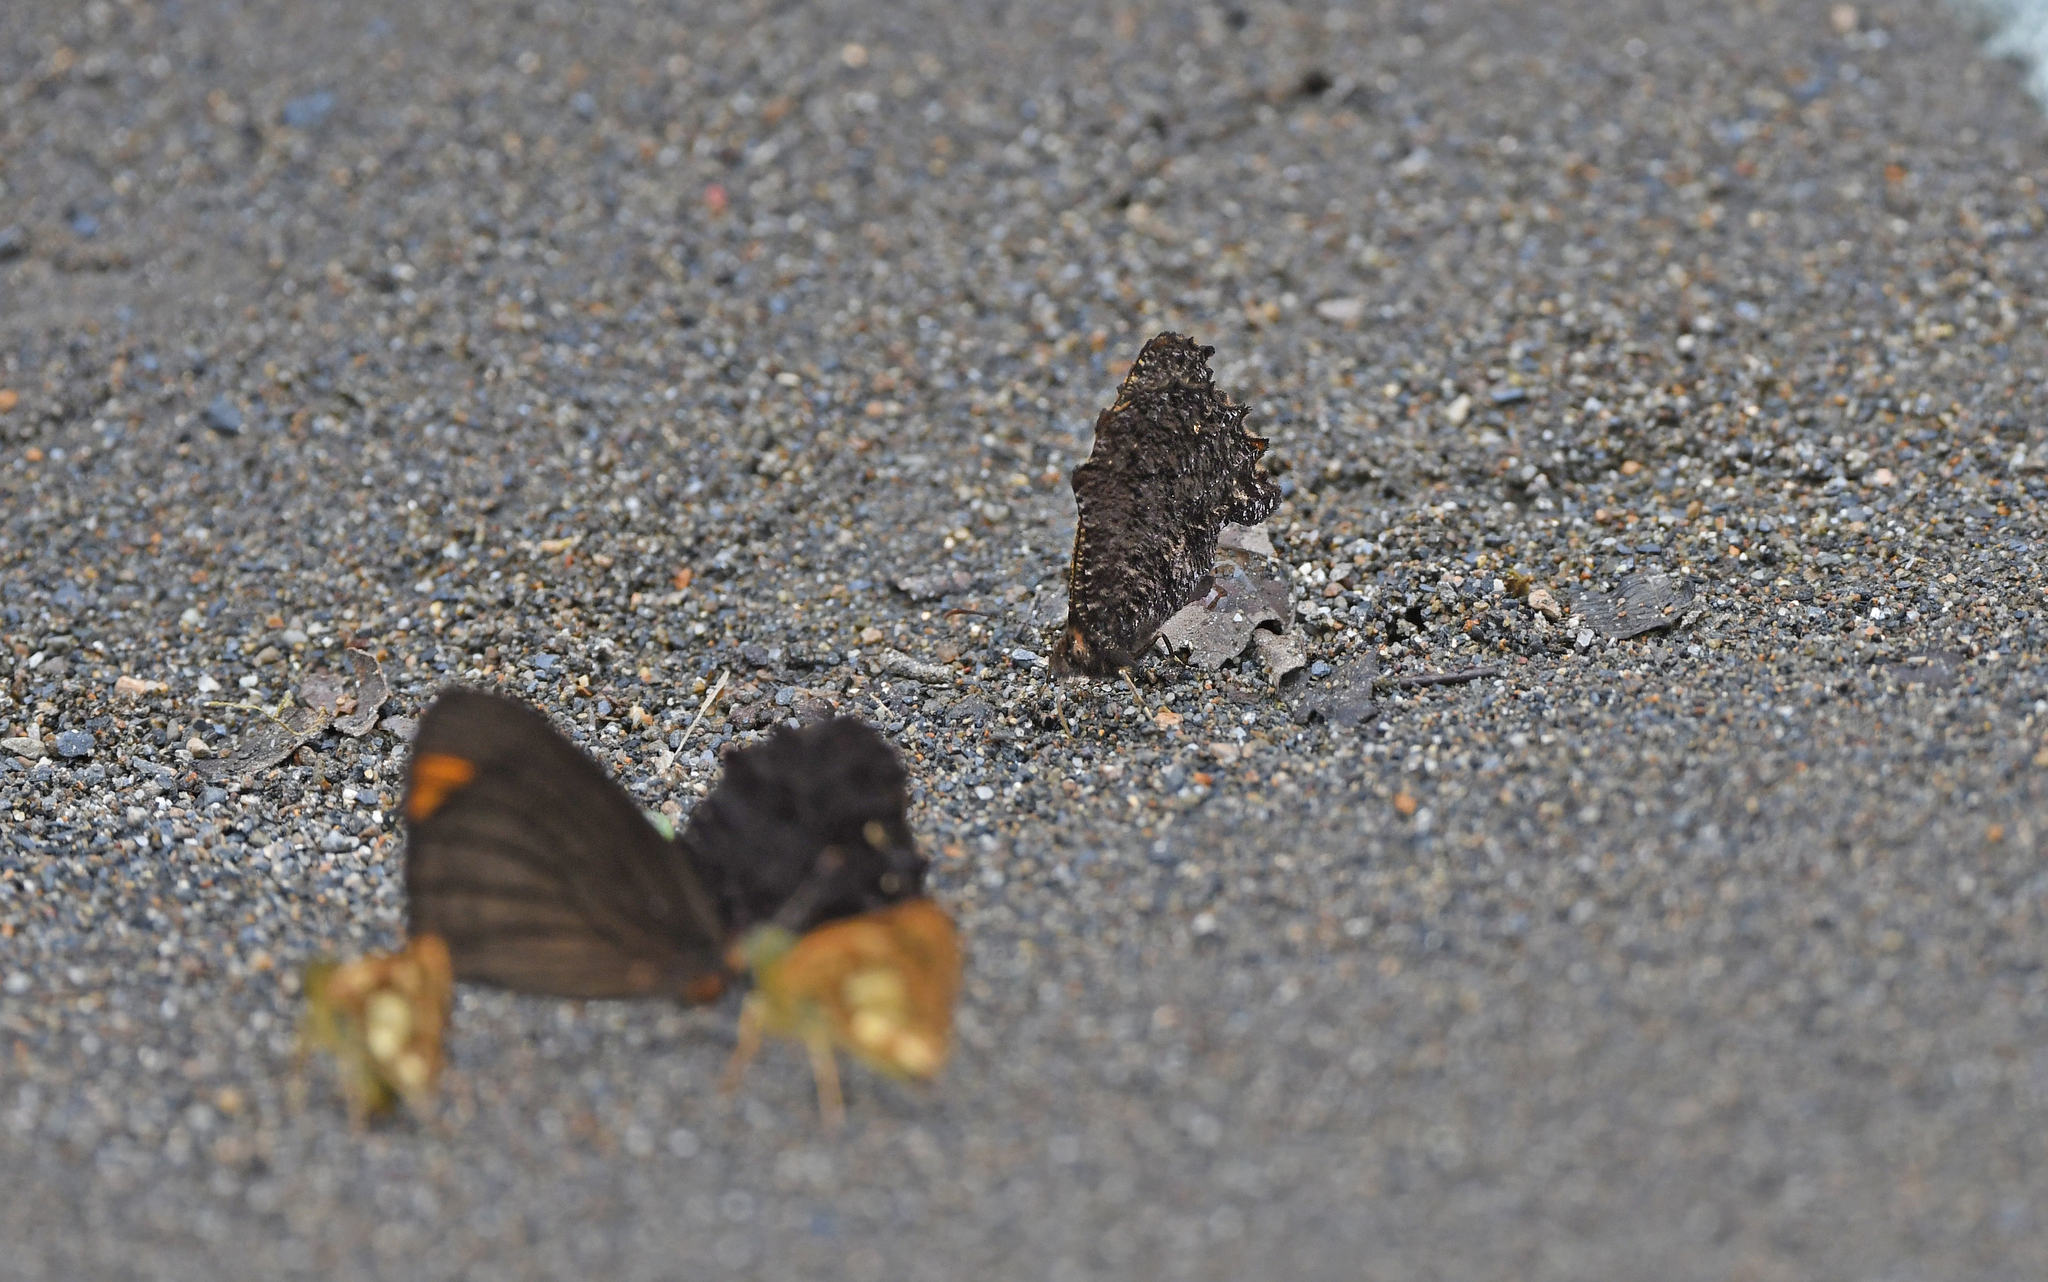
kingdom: Animalia
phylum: Arthropoda
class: Insecta
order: Lepidoptera
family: Nymphalidae
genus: Steroma
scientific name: Steroma modesta
